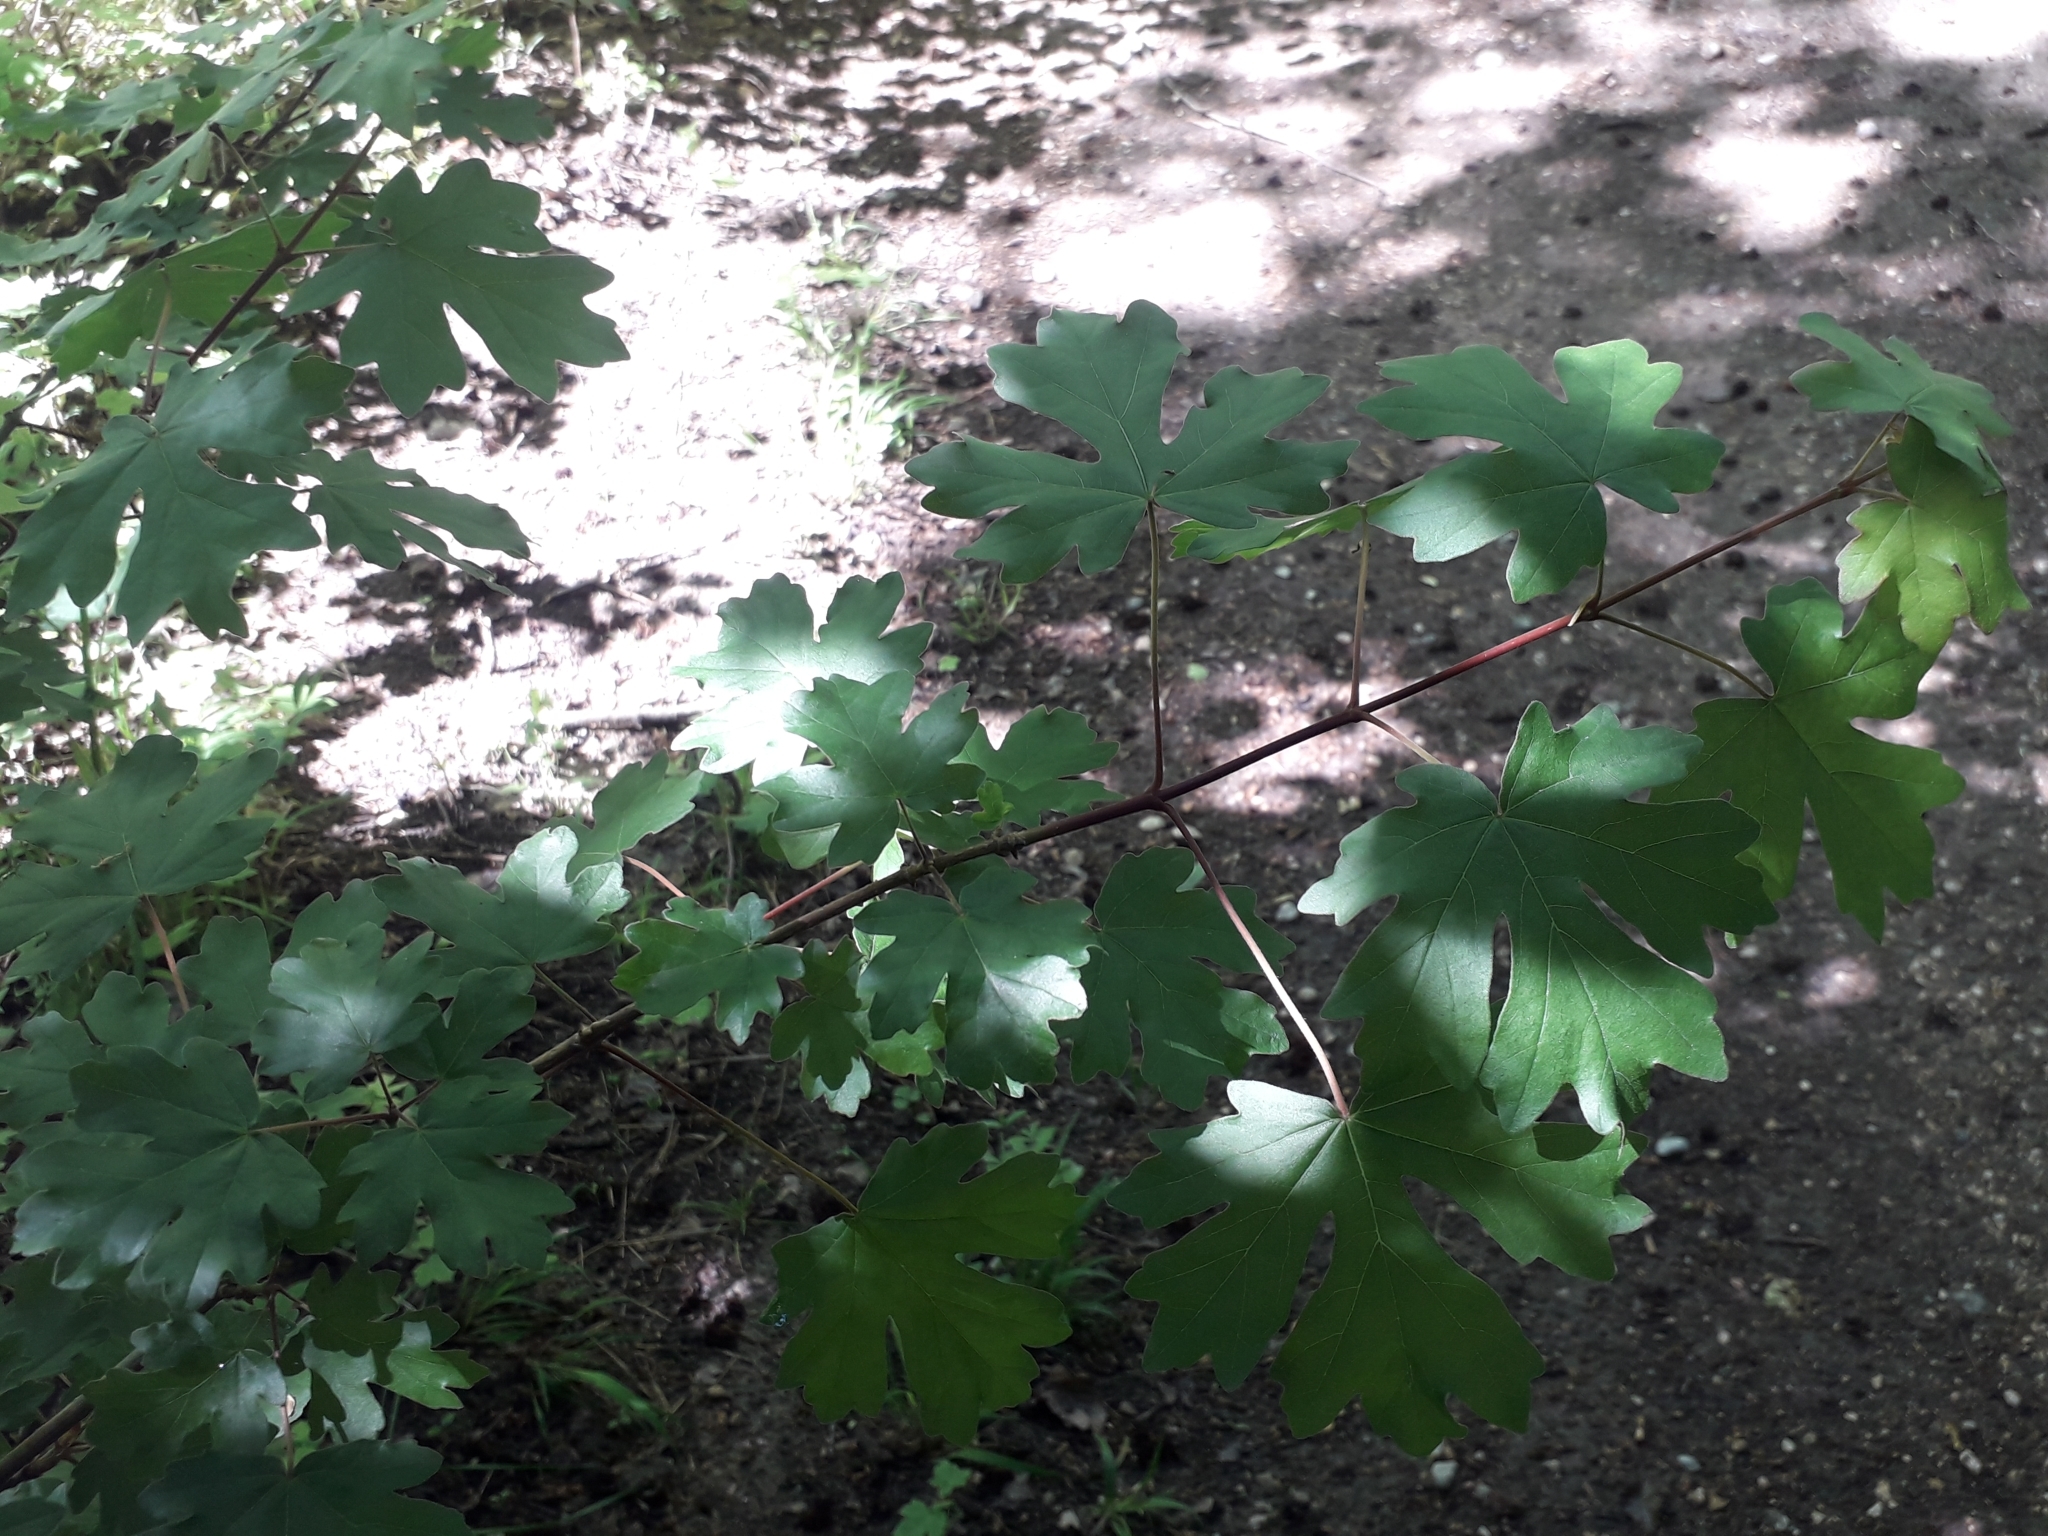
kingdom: Plantae
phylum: Tracheophyta
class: Magnoliopsida
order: Sapindales
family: Sapindaceae
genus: Acer
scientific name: Acer campestre
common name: Field maple
